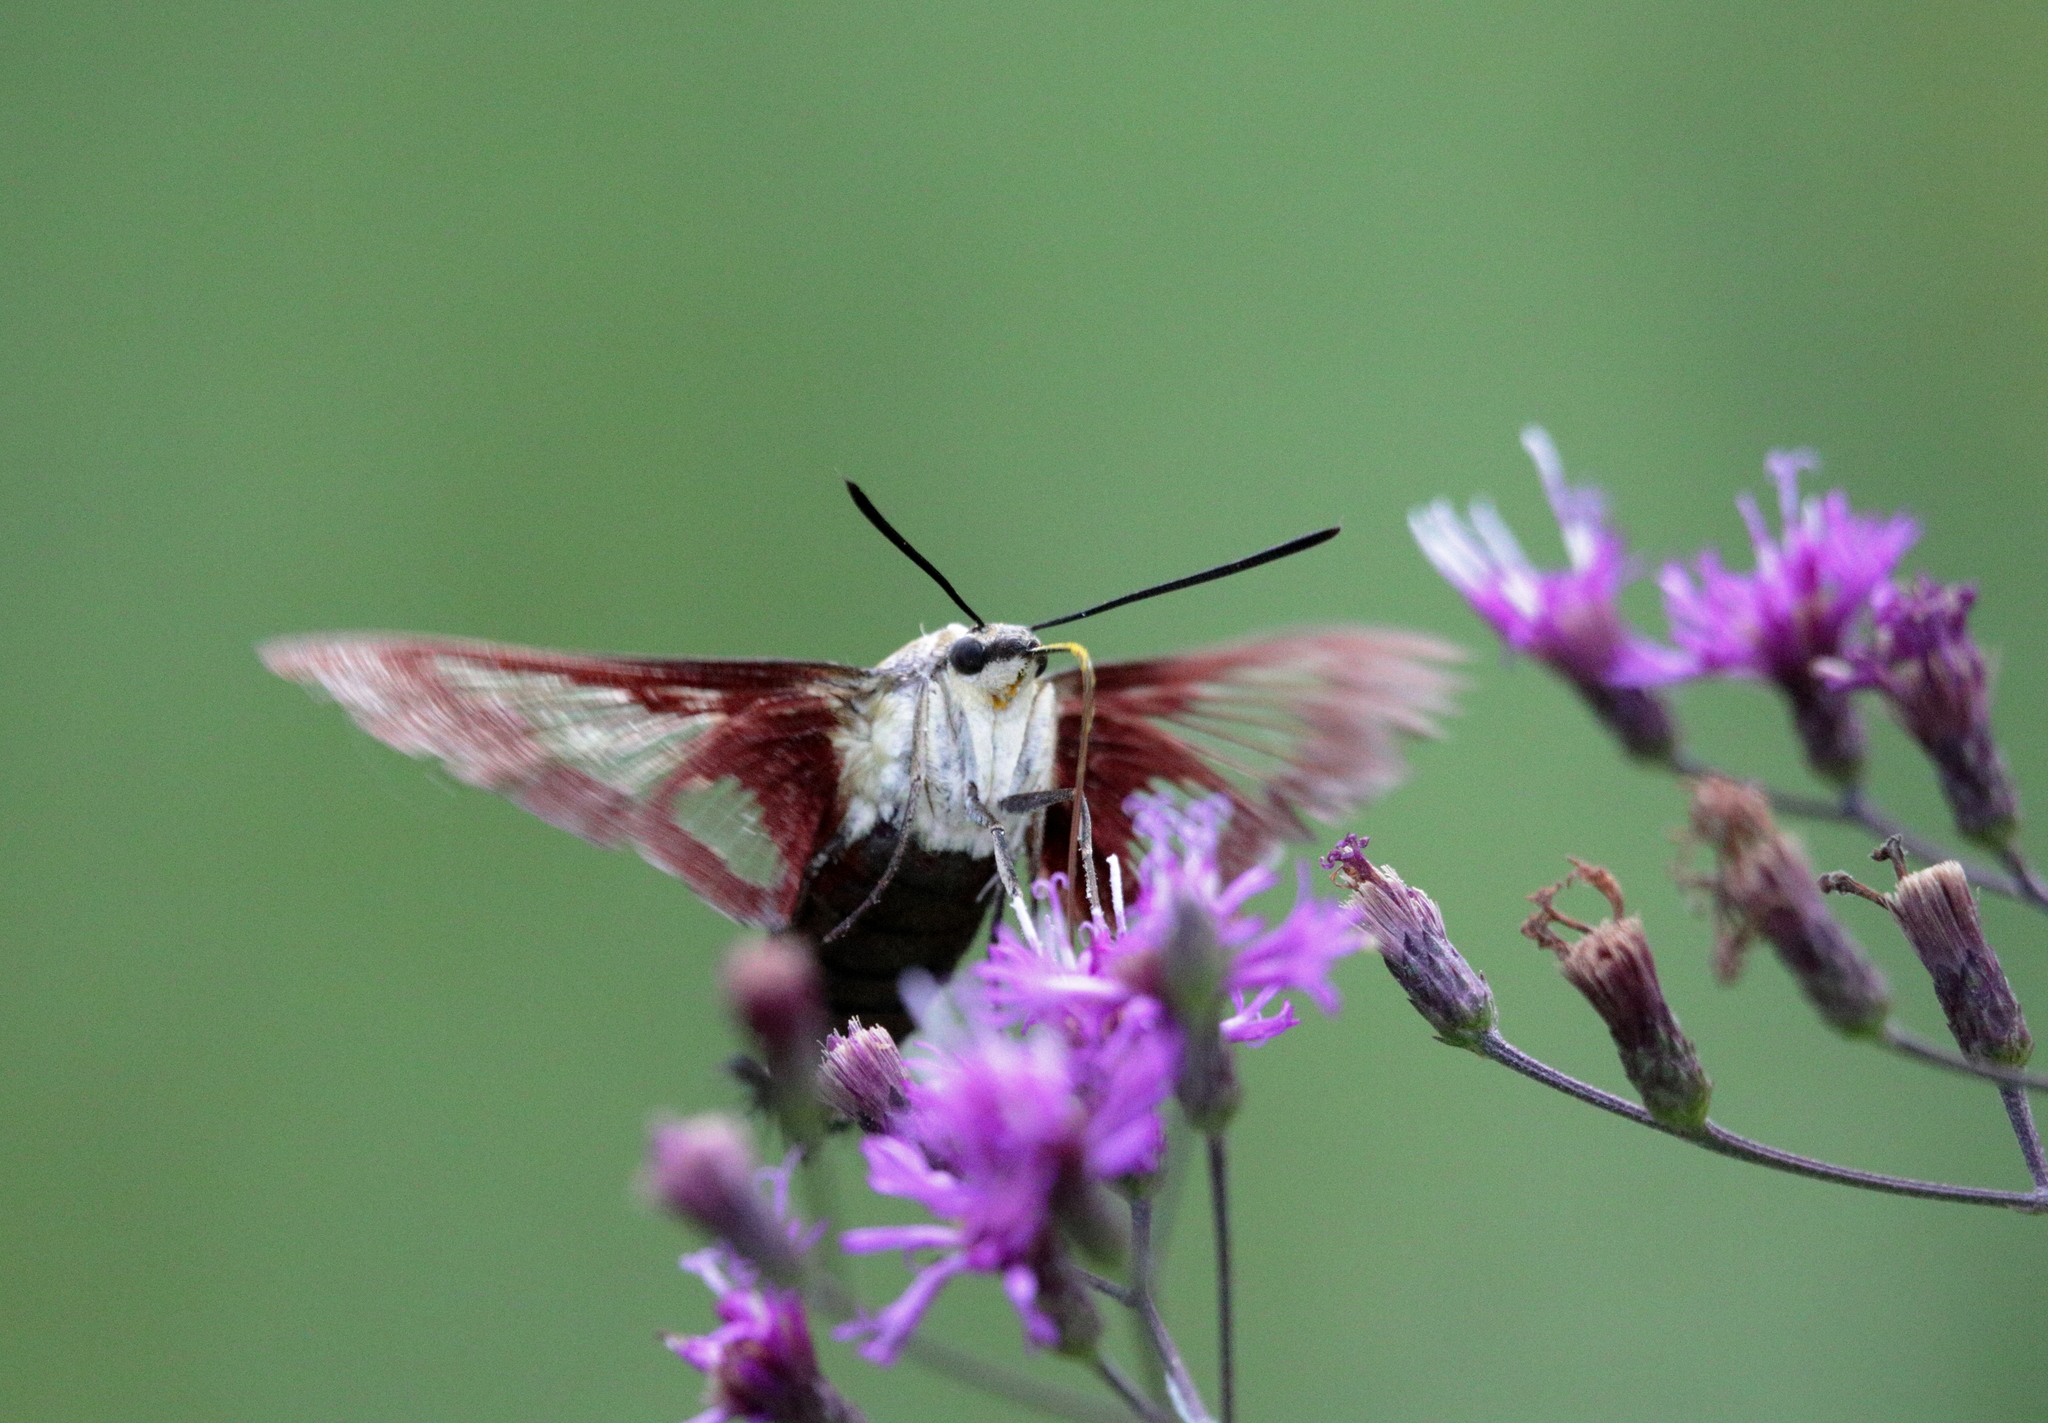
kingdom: Animalia
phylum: Arthropoda
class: Insecta
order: Lepidoptera
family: Sphingidae
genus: Hemaris
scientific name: Hemaris thysbe
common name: Common clear-wing
